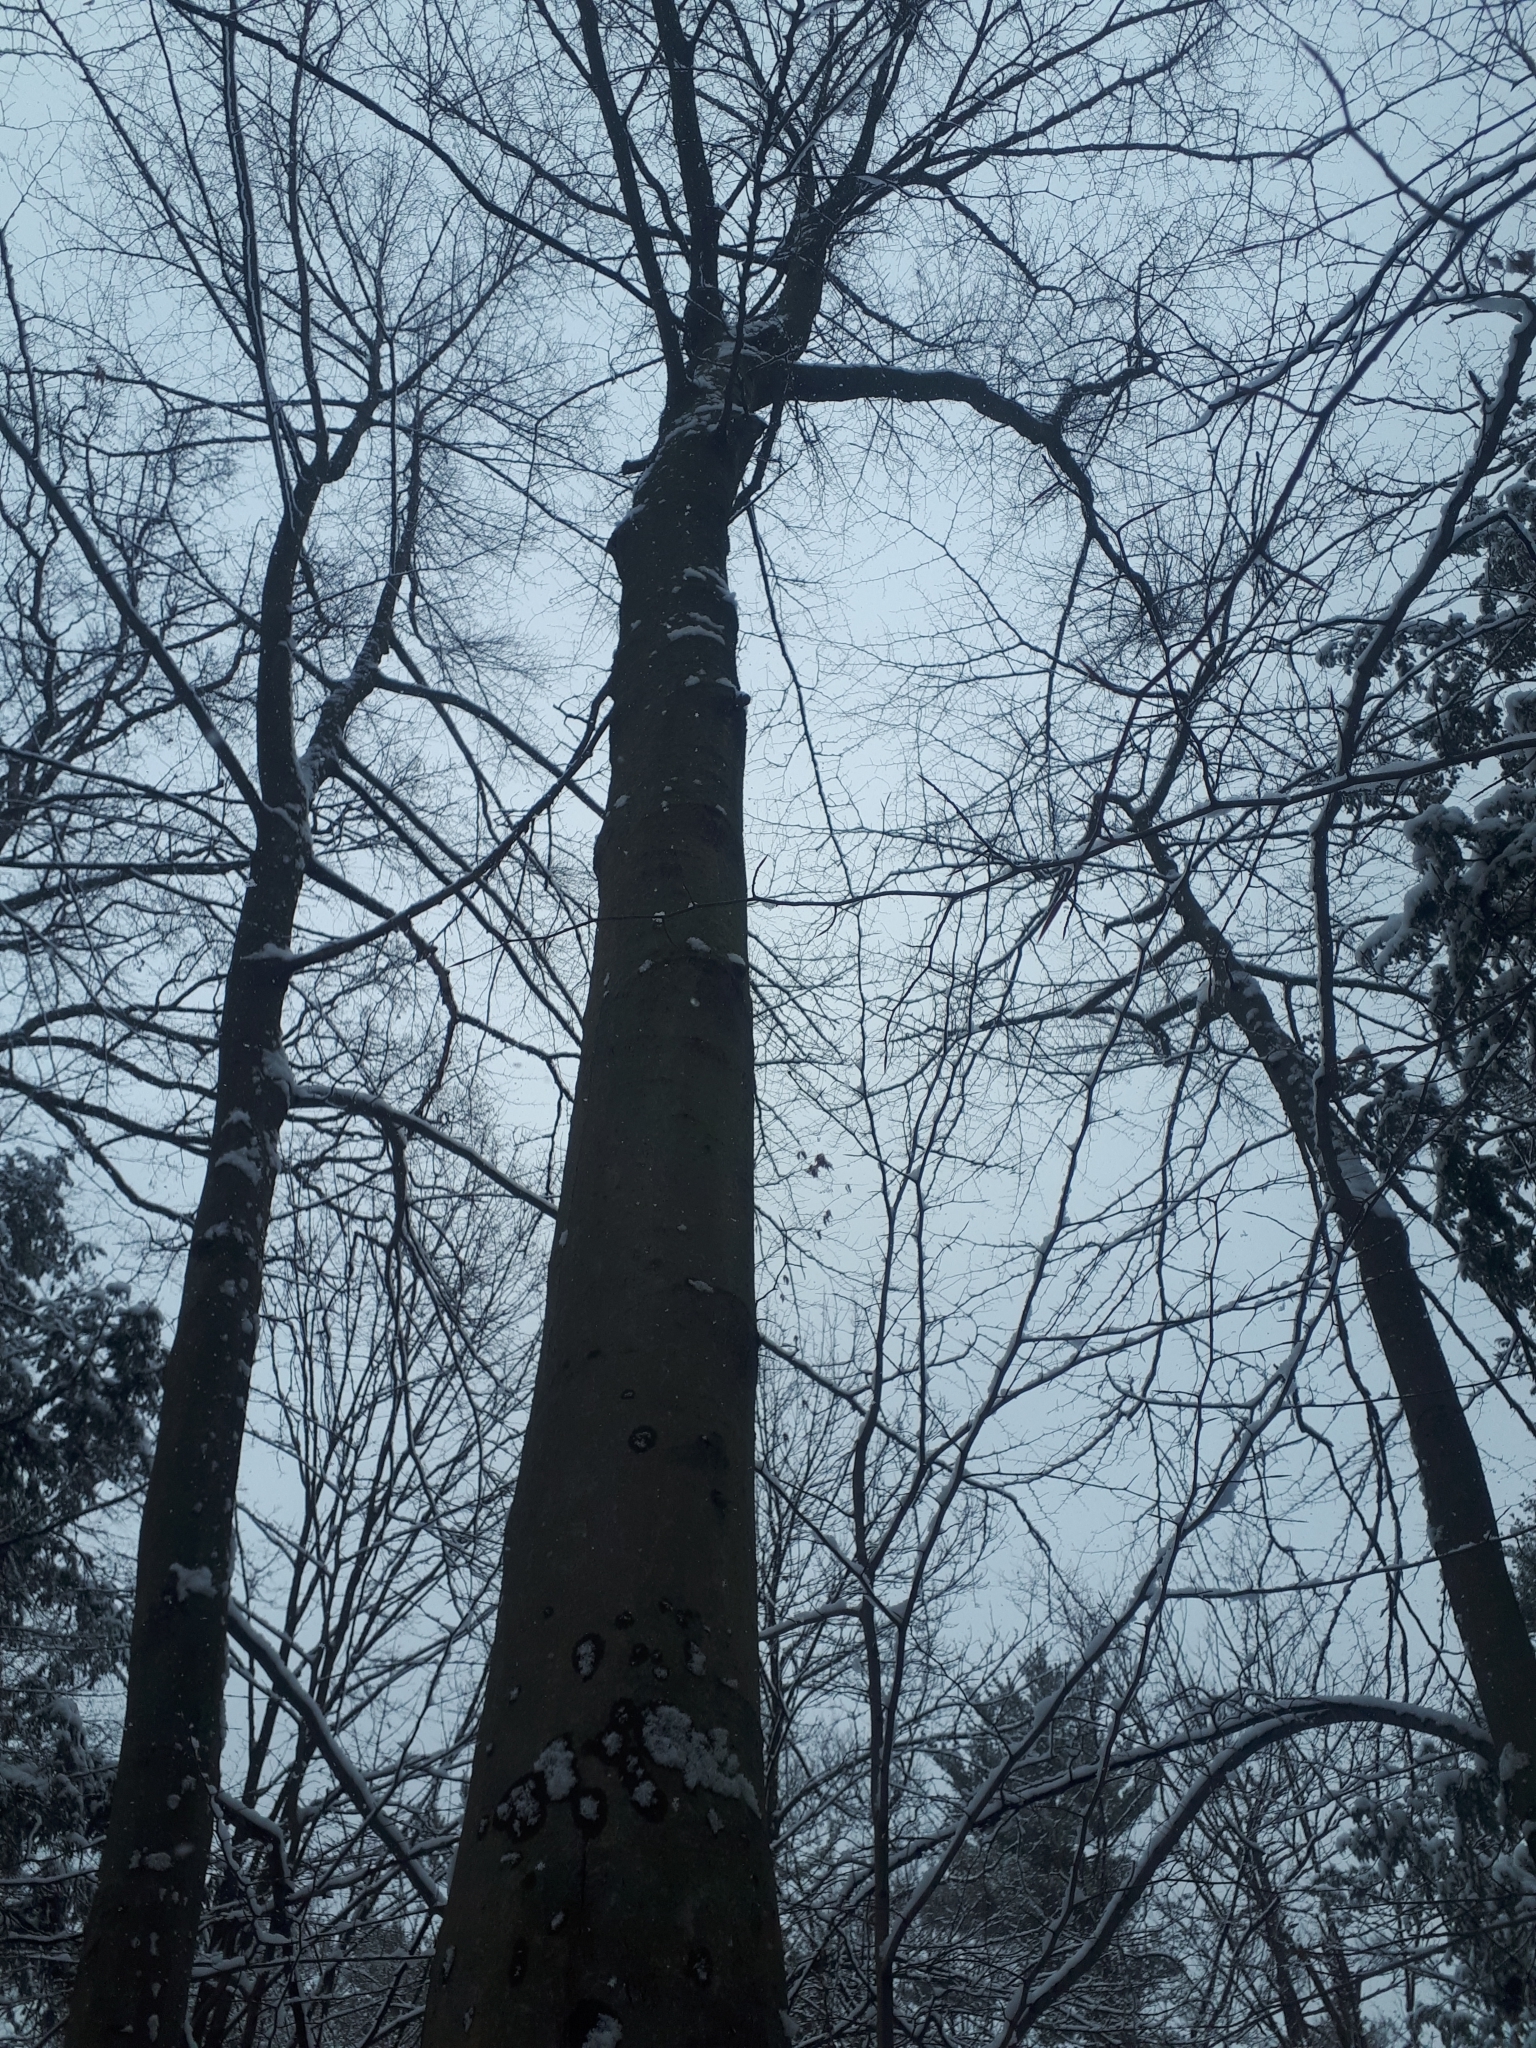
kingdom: Plantae
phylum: Tracheophyta
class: Magnoliopsida
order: Fagales
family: Fagaceae
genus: Fagus
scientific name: Fagus grandifolia
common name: American beech
